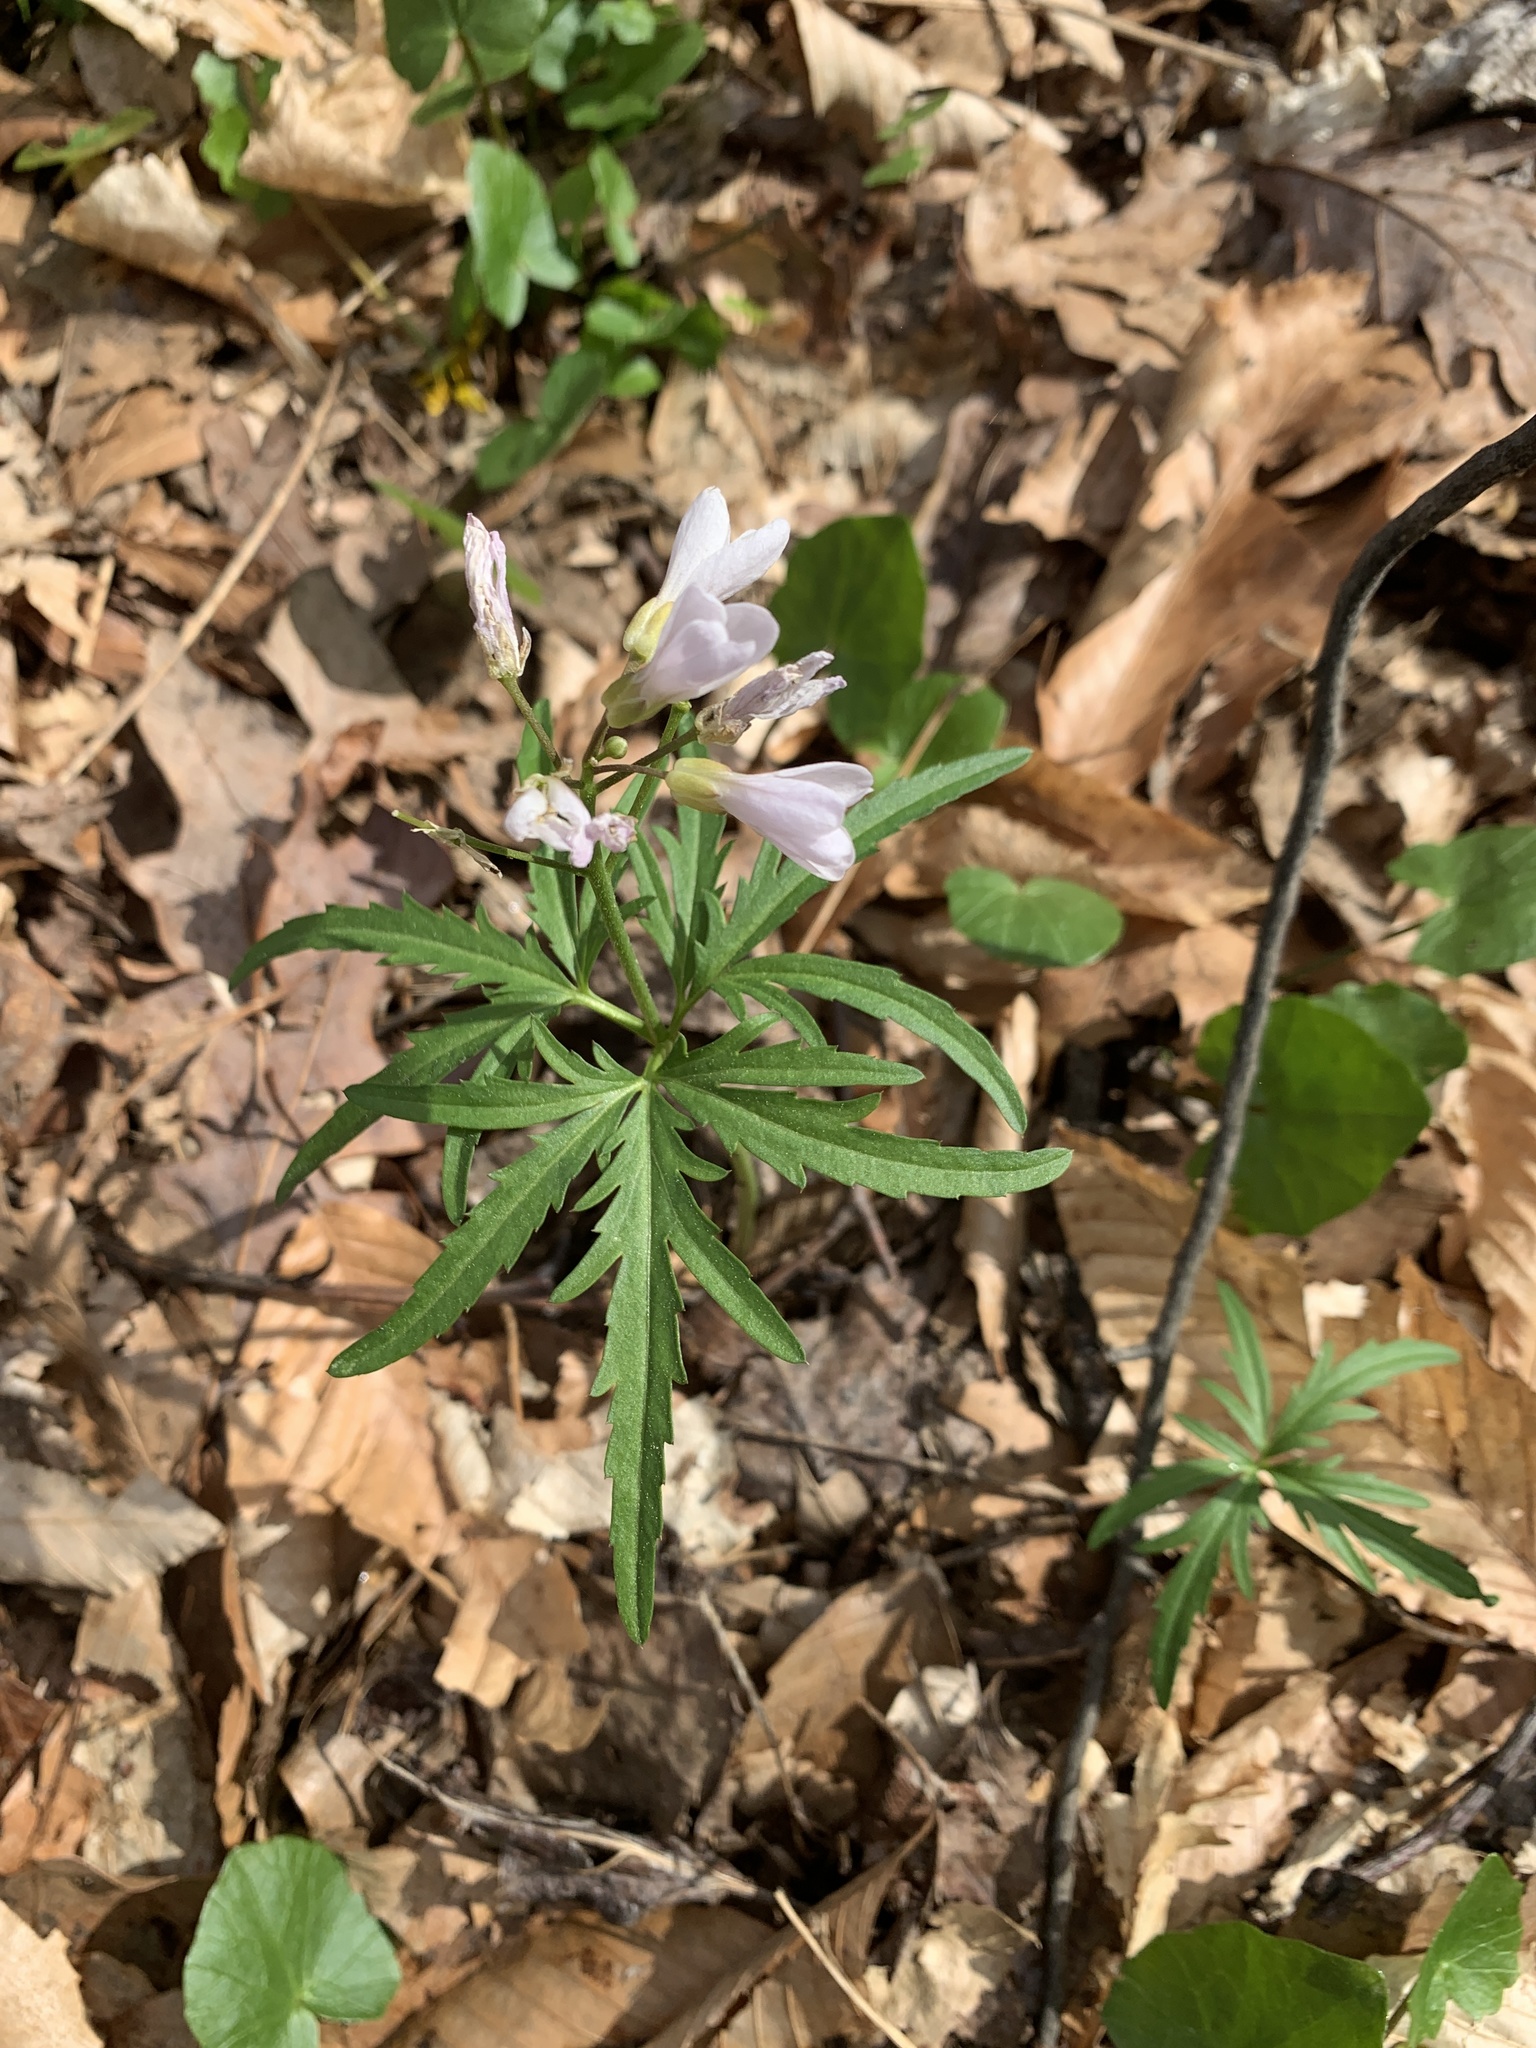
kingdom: Plantae
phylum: Tracheophyta
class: Magnoliopsida
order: Brassicales
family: Brassicaceae
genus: Cardamine
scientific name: Cardamine concatenata
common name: Cut-leaf toothcup
